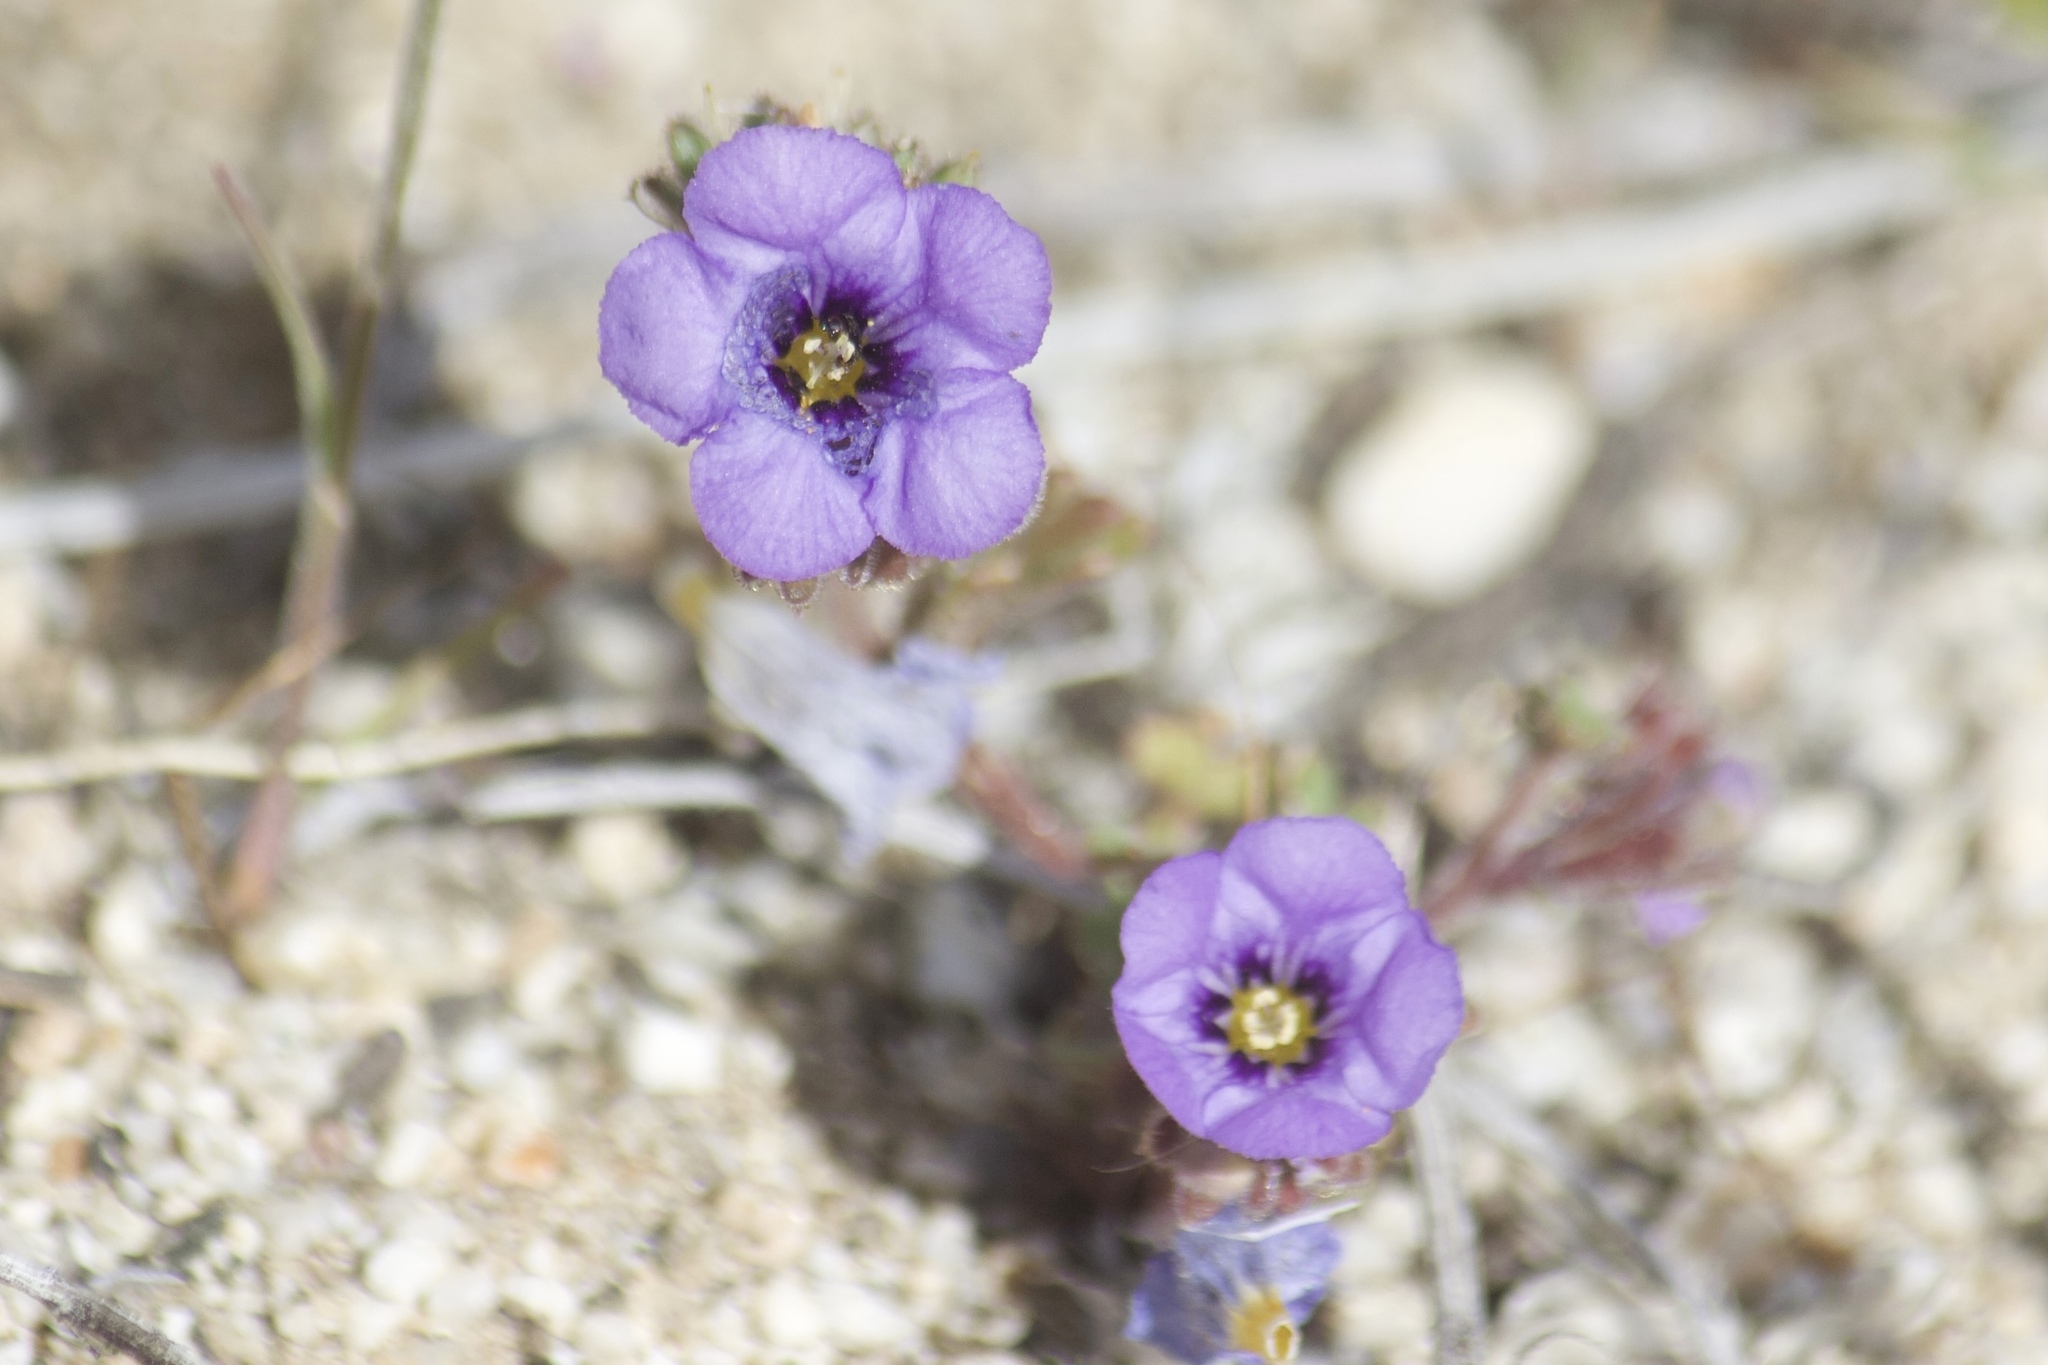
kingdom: Plantae
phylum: Tracheophyta
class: Magnoliopsida
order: Boraginales
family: Hydrophyllaceae
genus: Phacelia
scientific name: Phacelia fremontii
